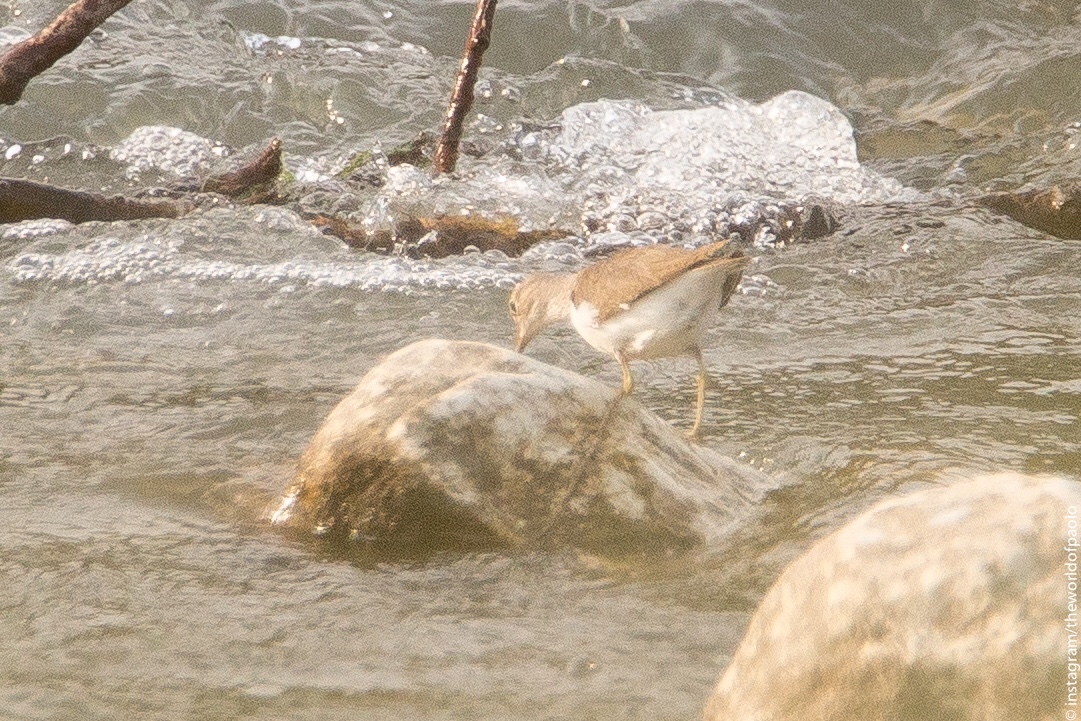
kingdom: Animalia
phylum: Chordata
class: Aves
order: Charadriiformes
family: Scolopacidae
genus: Actitis
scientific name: Actitis hypoleucos
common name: Common sandpiper
